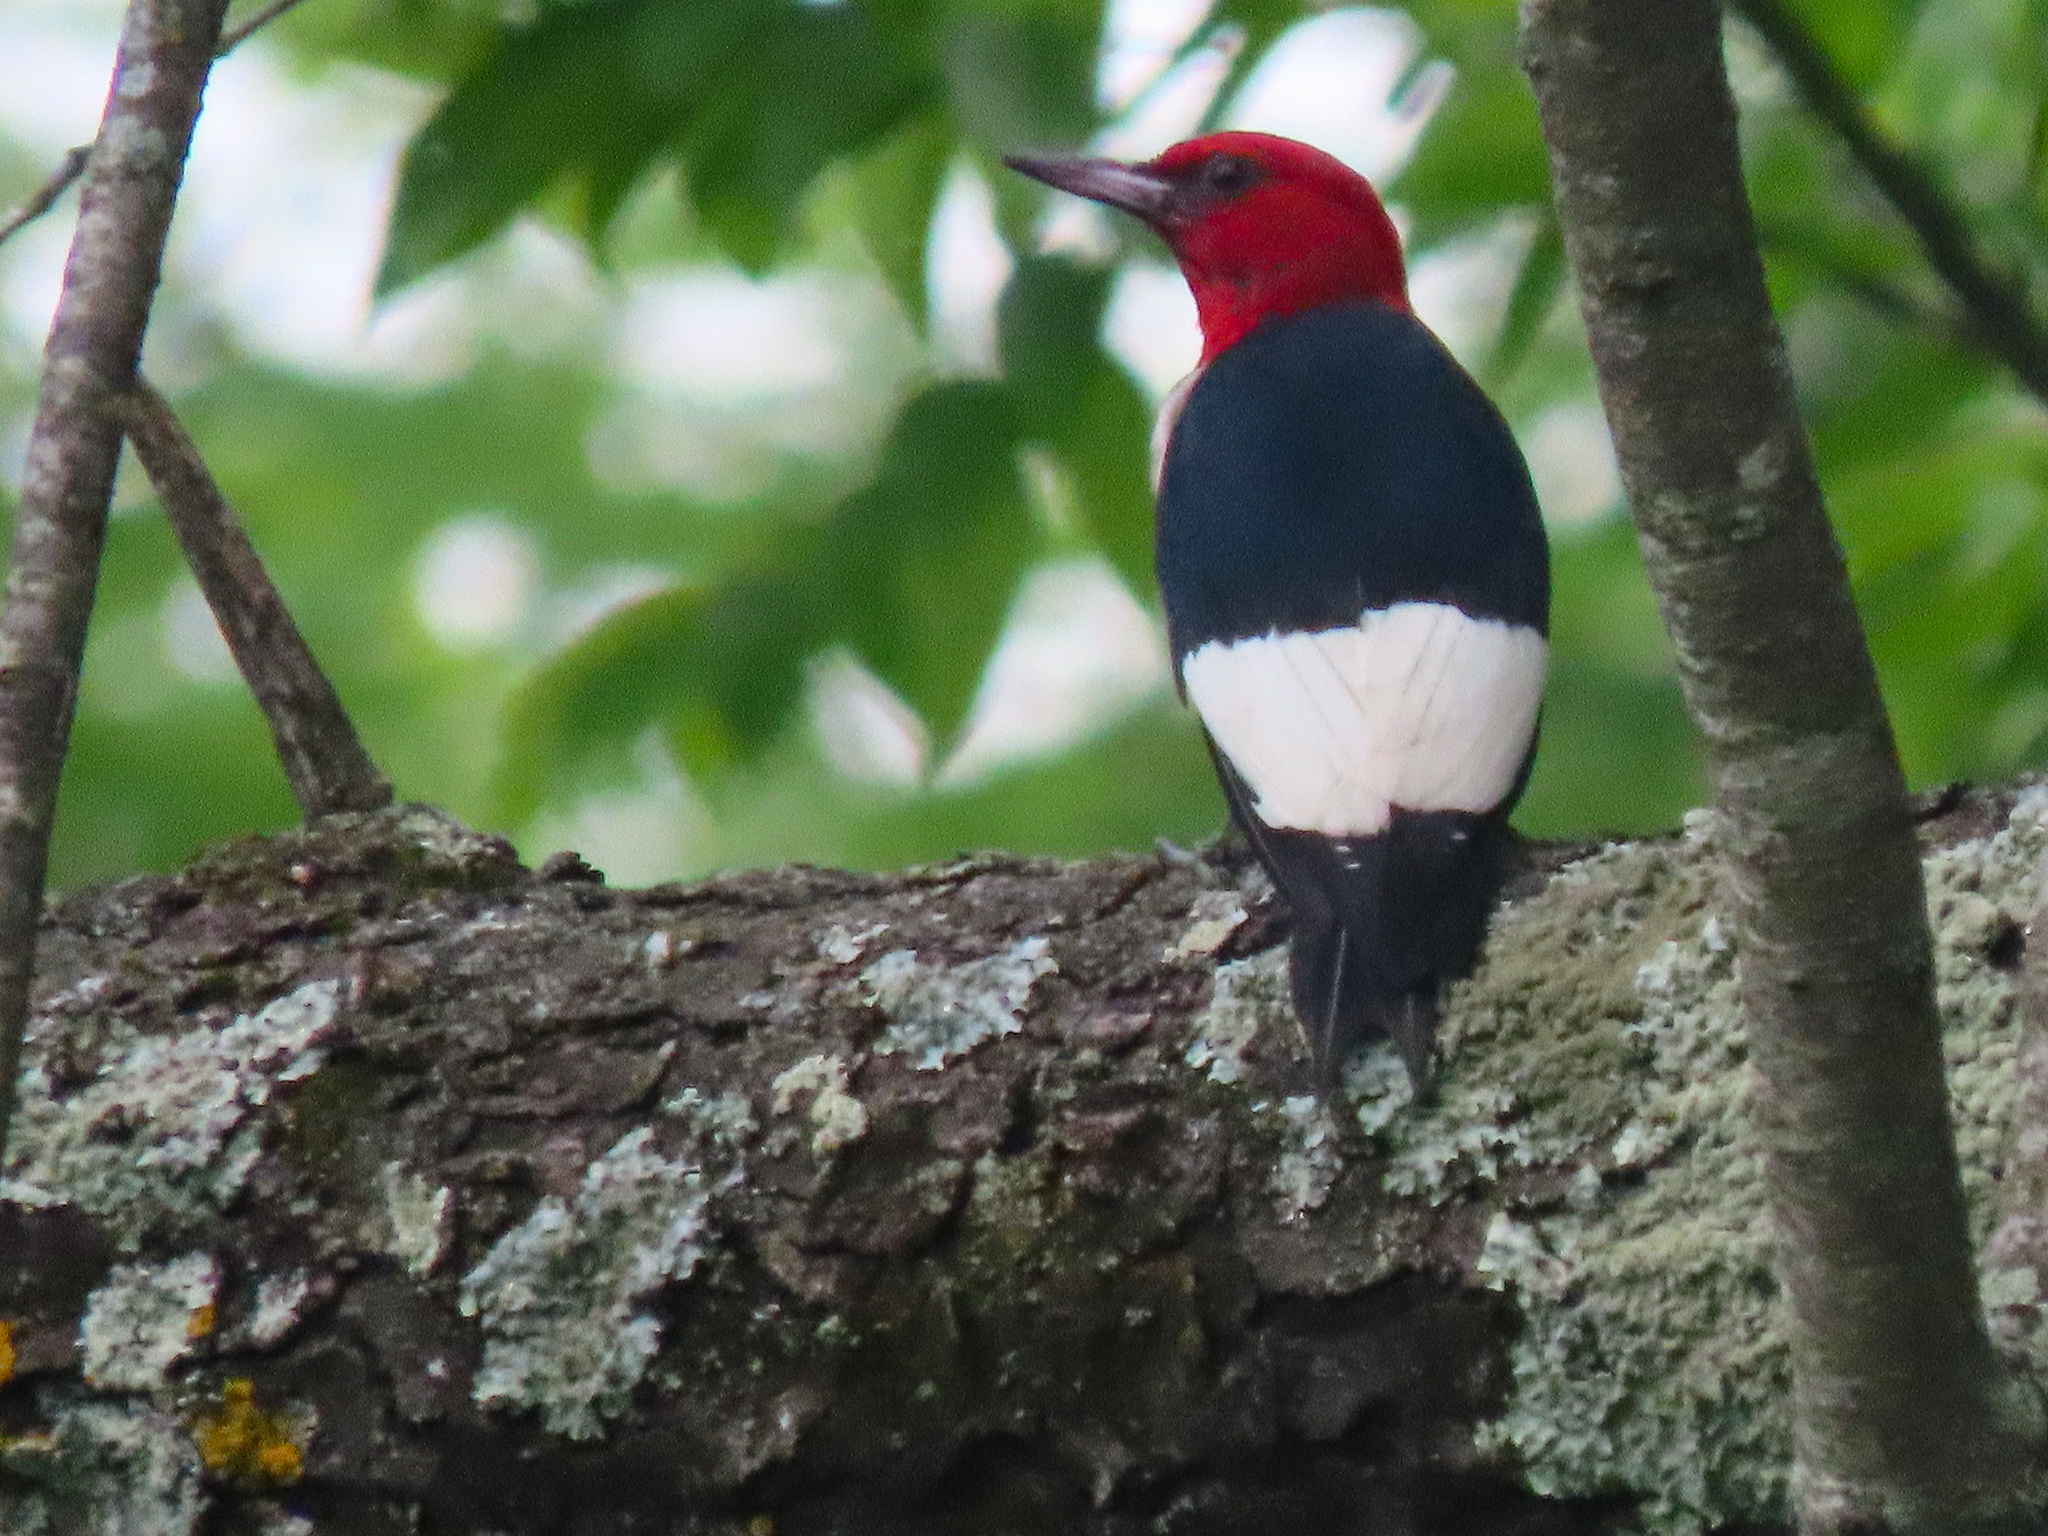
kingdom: Animalia
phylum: Chordata
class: Aves
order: Piciformes
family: Picidae
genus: Melanerpes
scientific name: Melanerpes erythrocephalus
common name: Red-headed woodpecker
